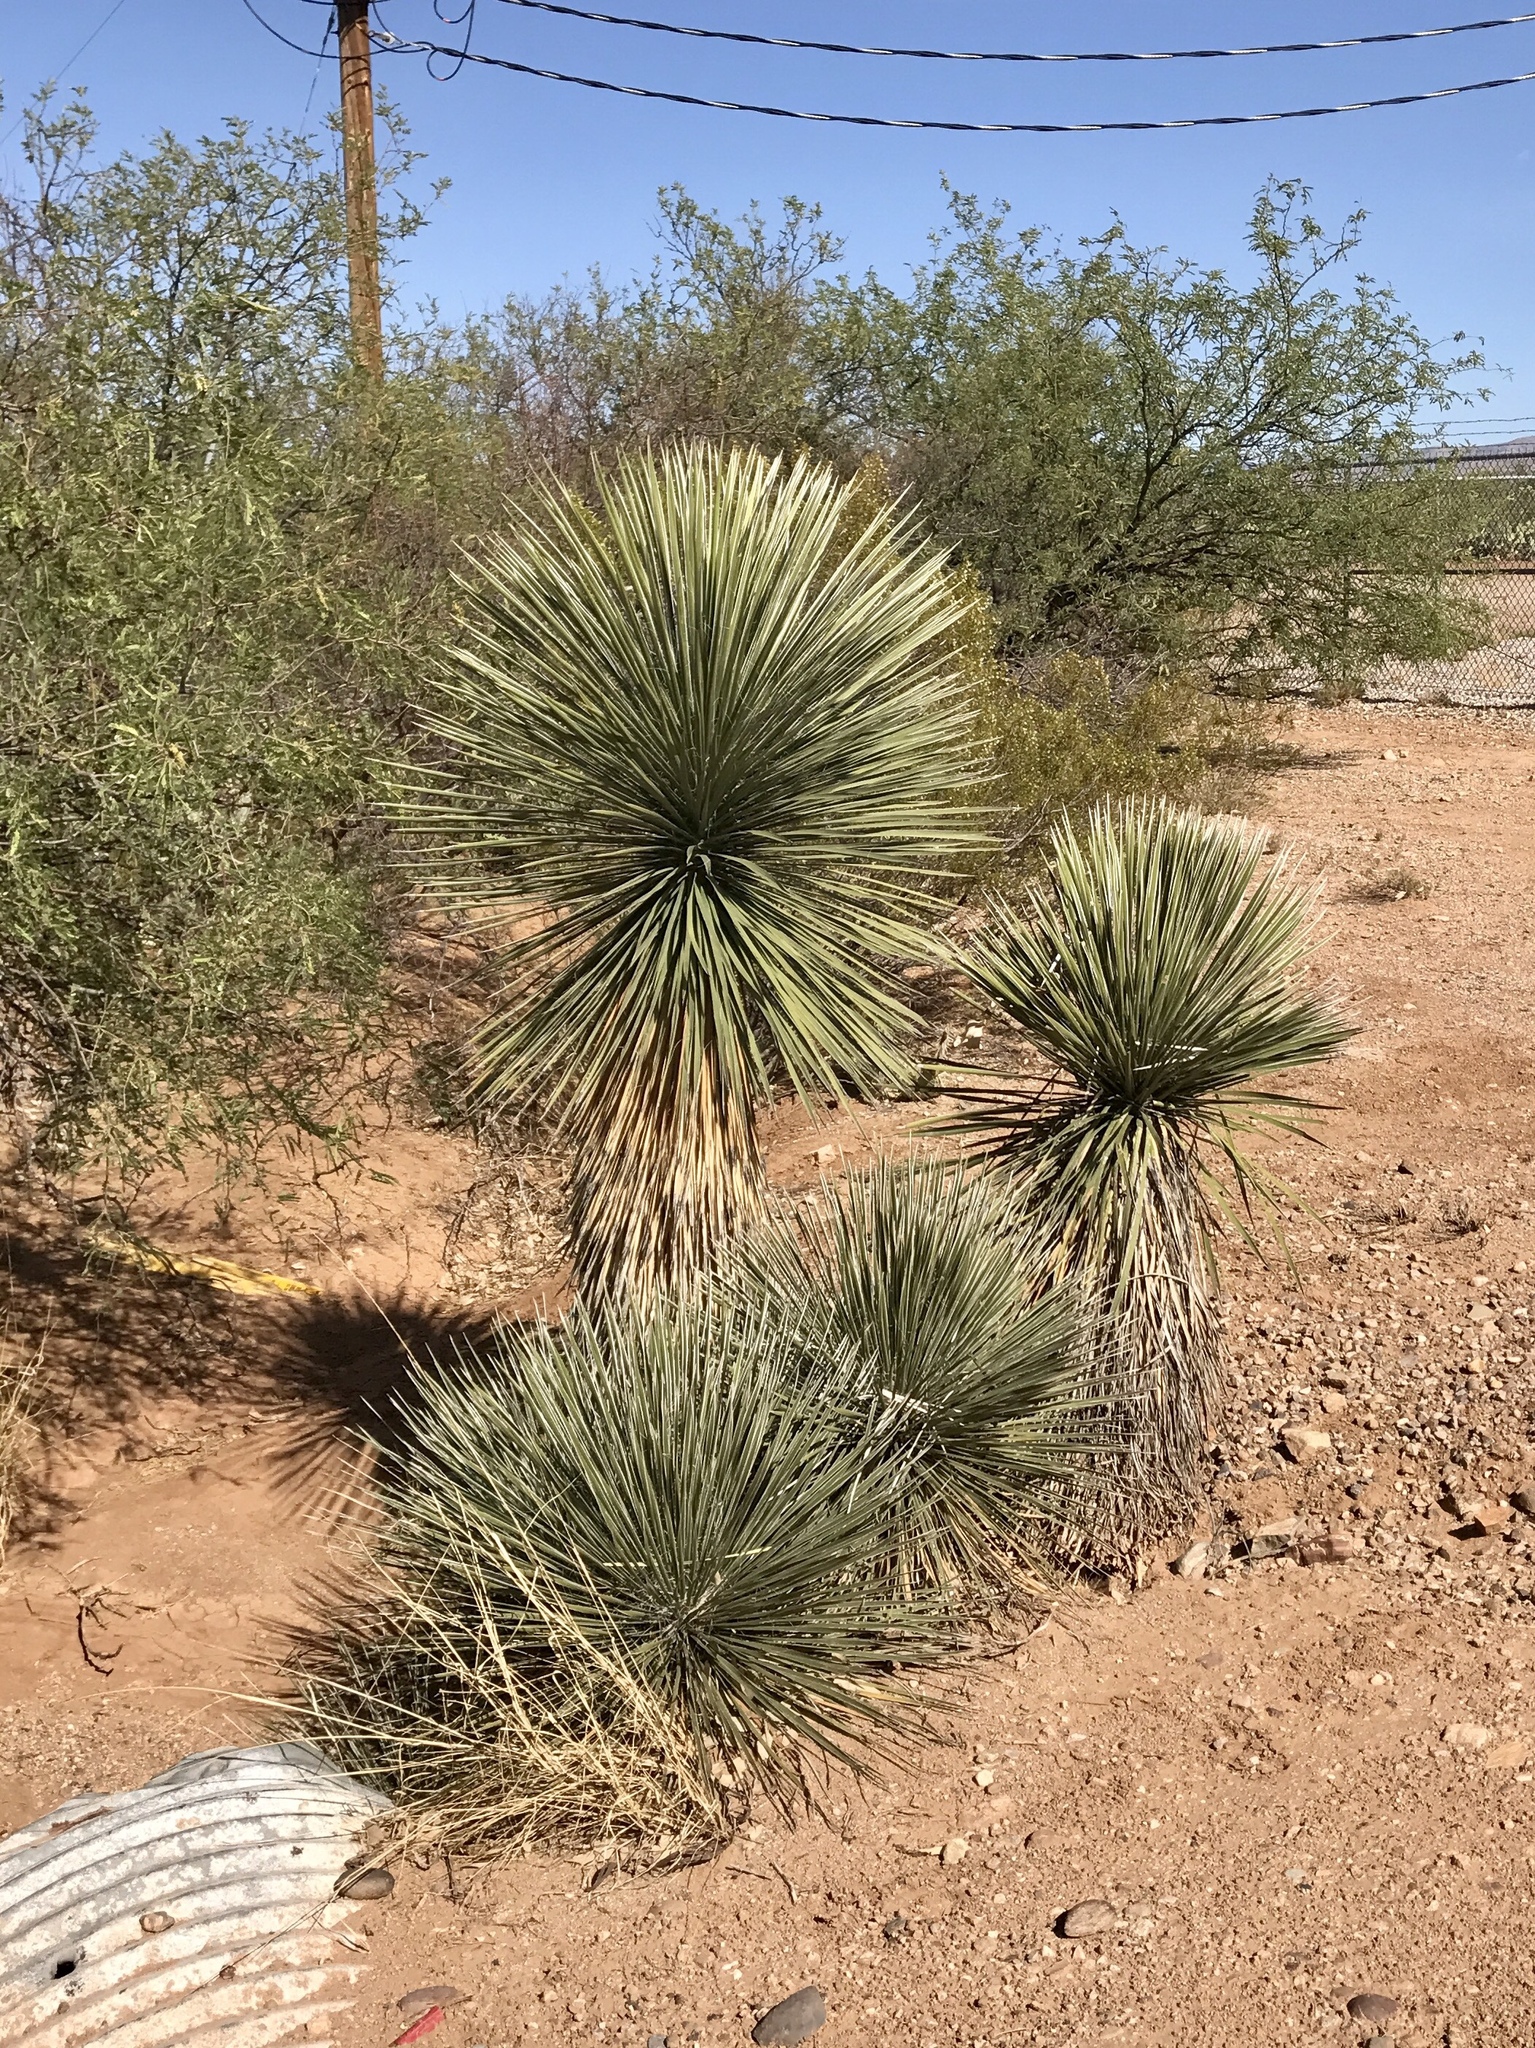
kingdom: Plantae
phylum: Tracheophyta
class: Liliopsida
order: Asparagales
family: Asparagaceae
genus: Yucca
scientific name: Yucca elata
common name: Palmella
